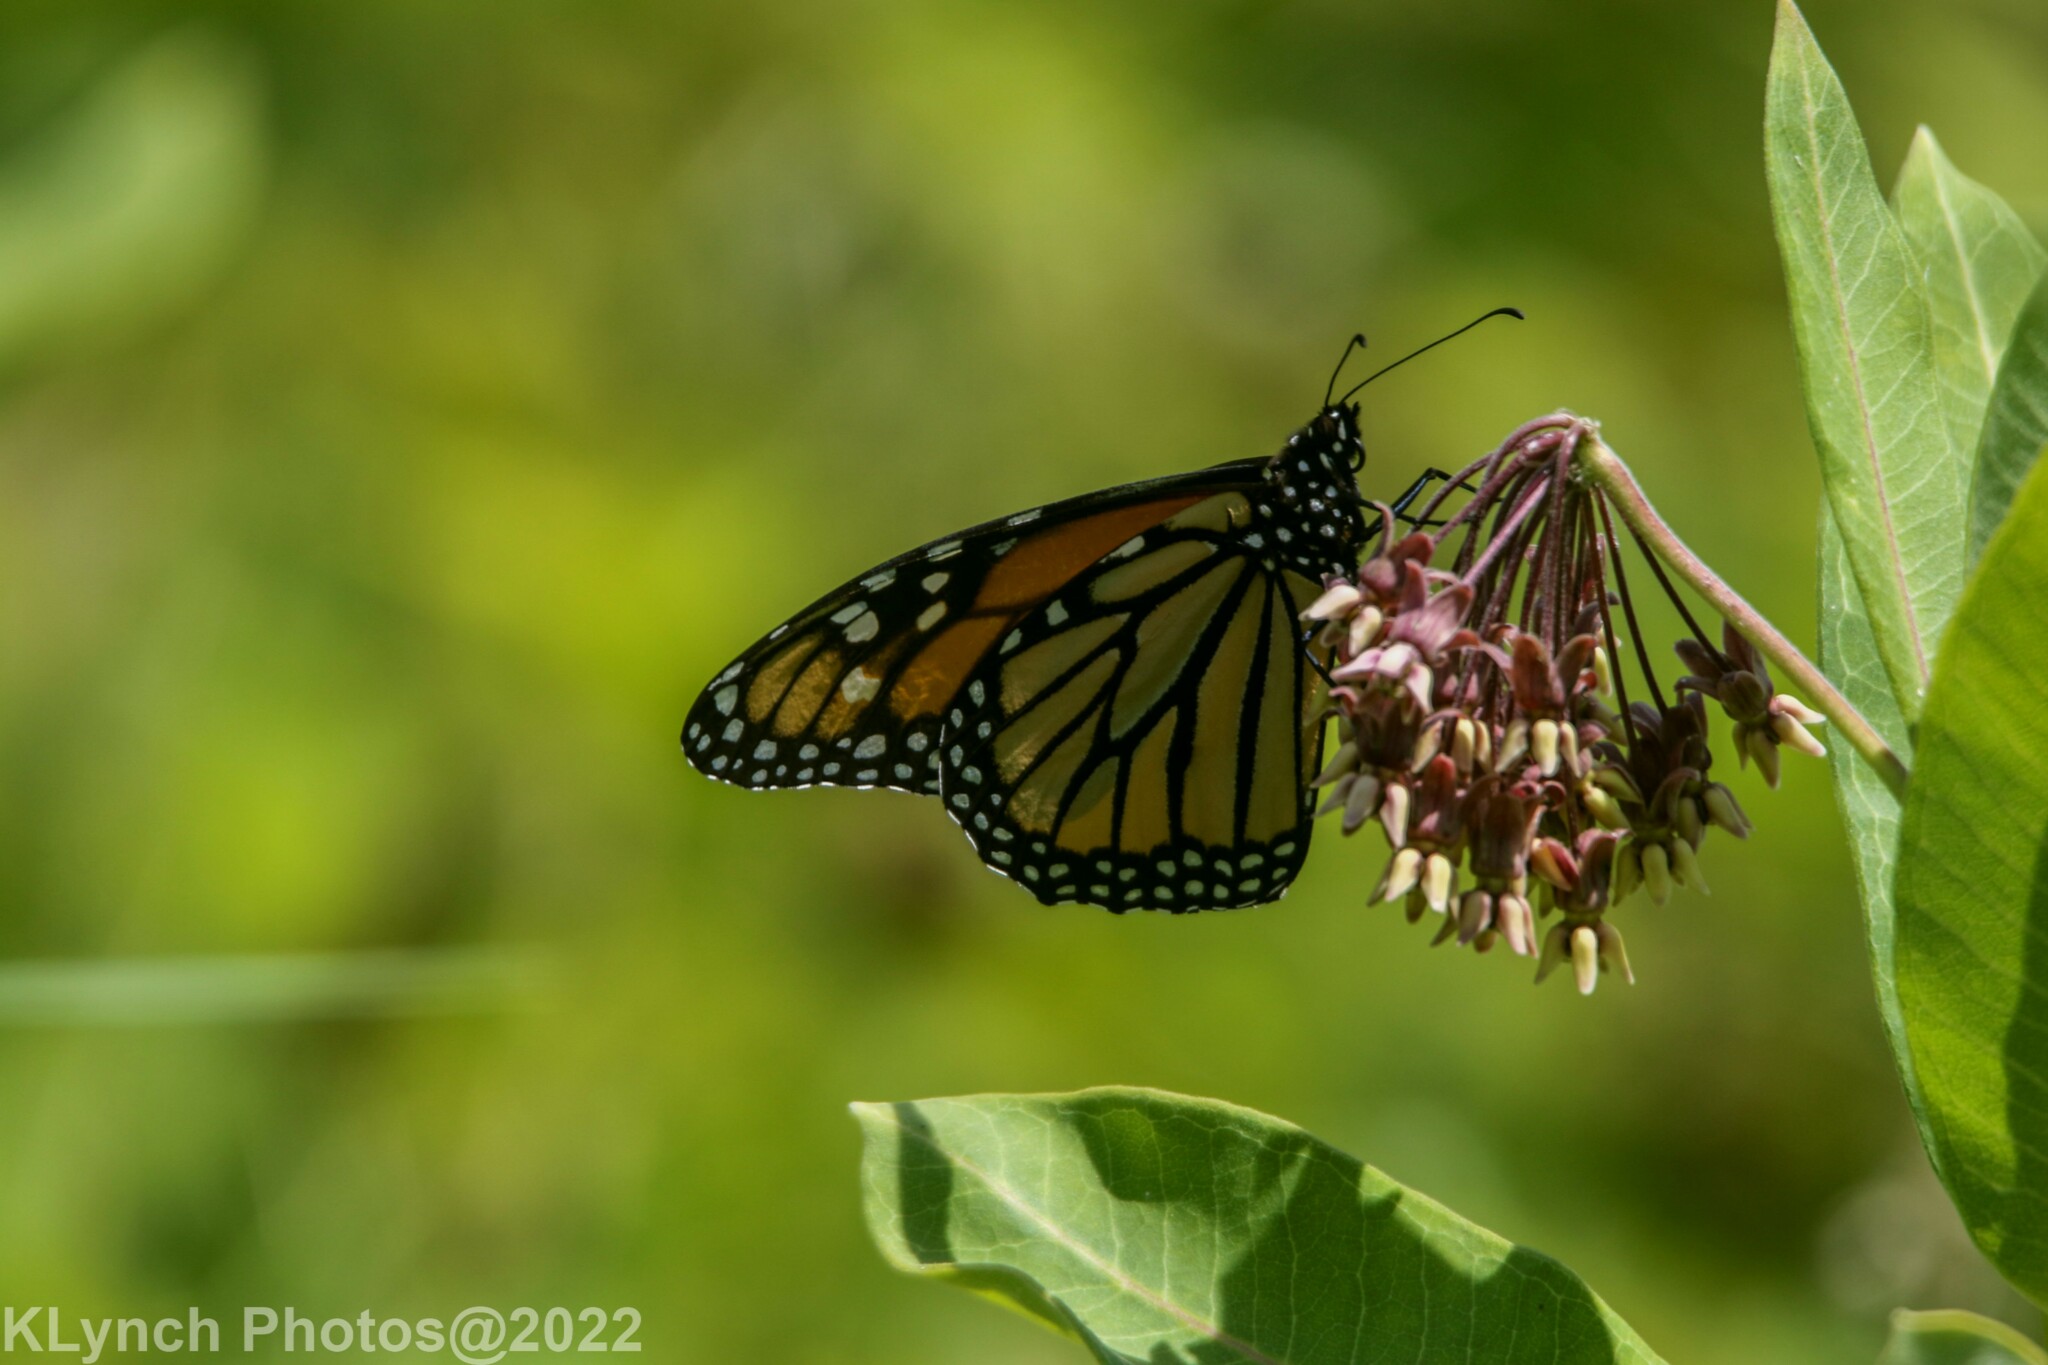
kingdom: Animalia
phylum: Arthropoda
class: Insecta
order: Lepidoptera
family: Nymphalidae
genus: Danaus
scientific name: Danaus plexippus
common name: Monarch
